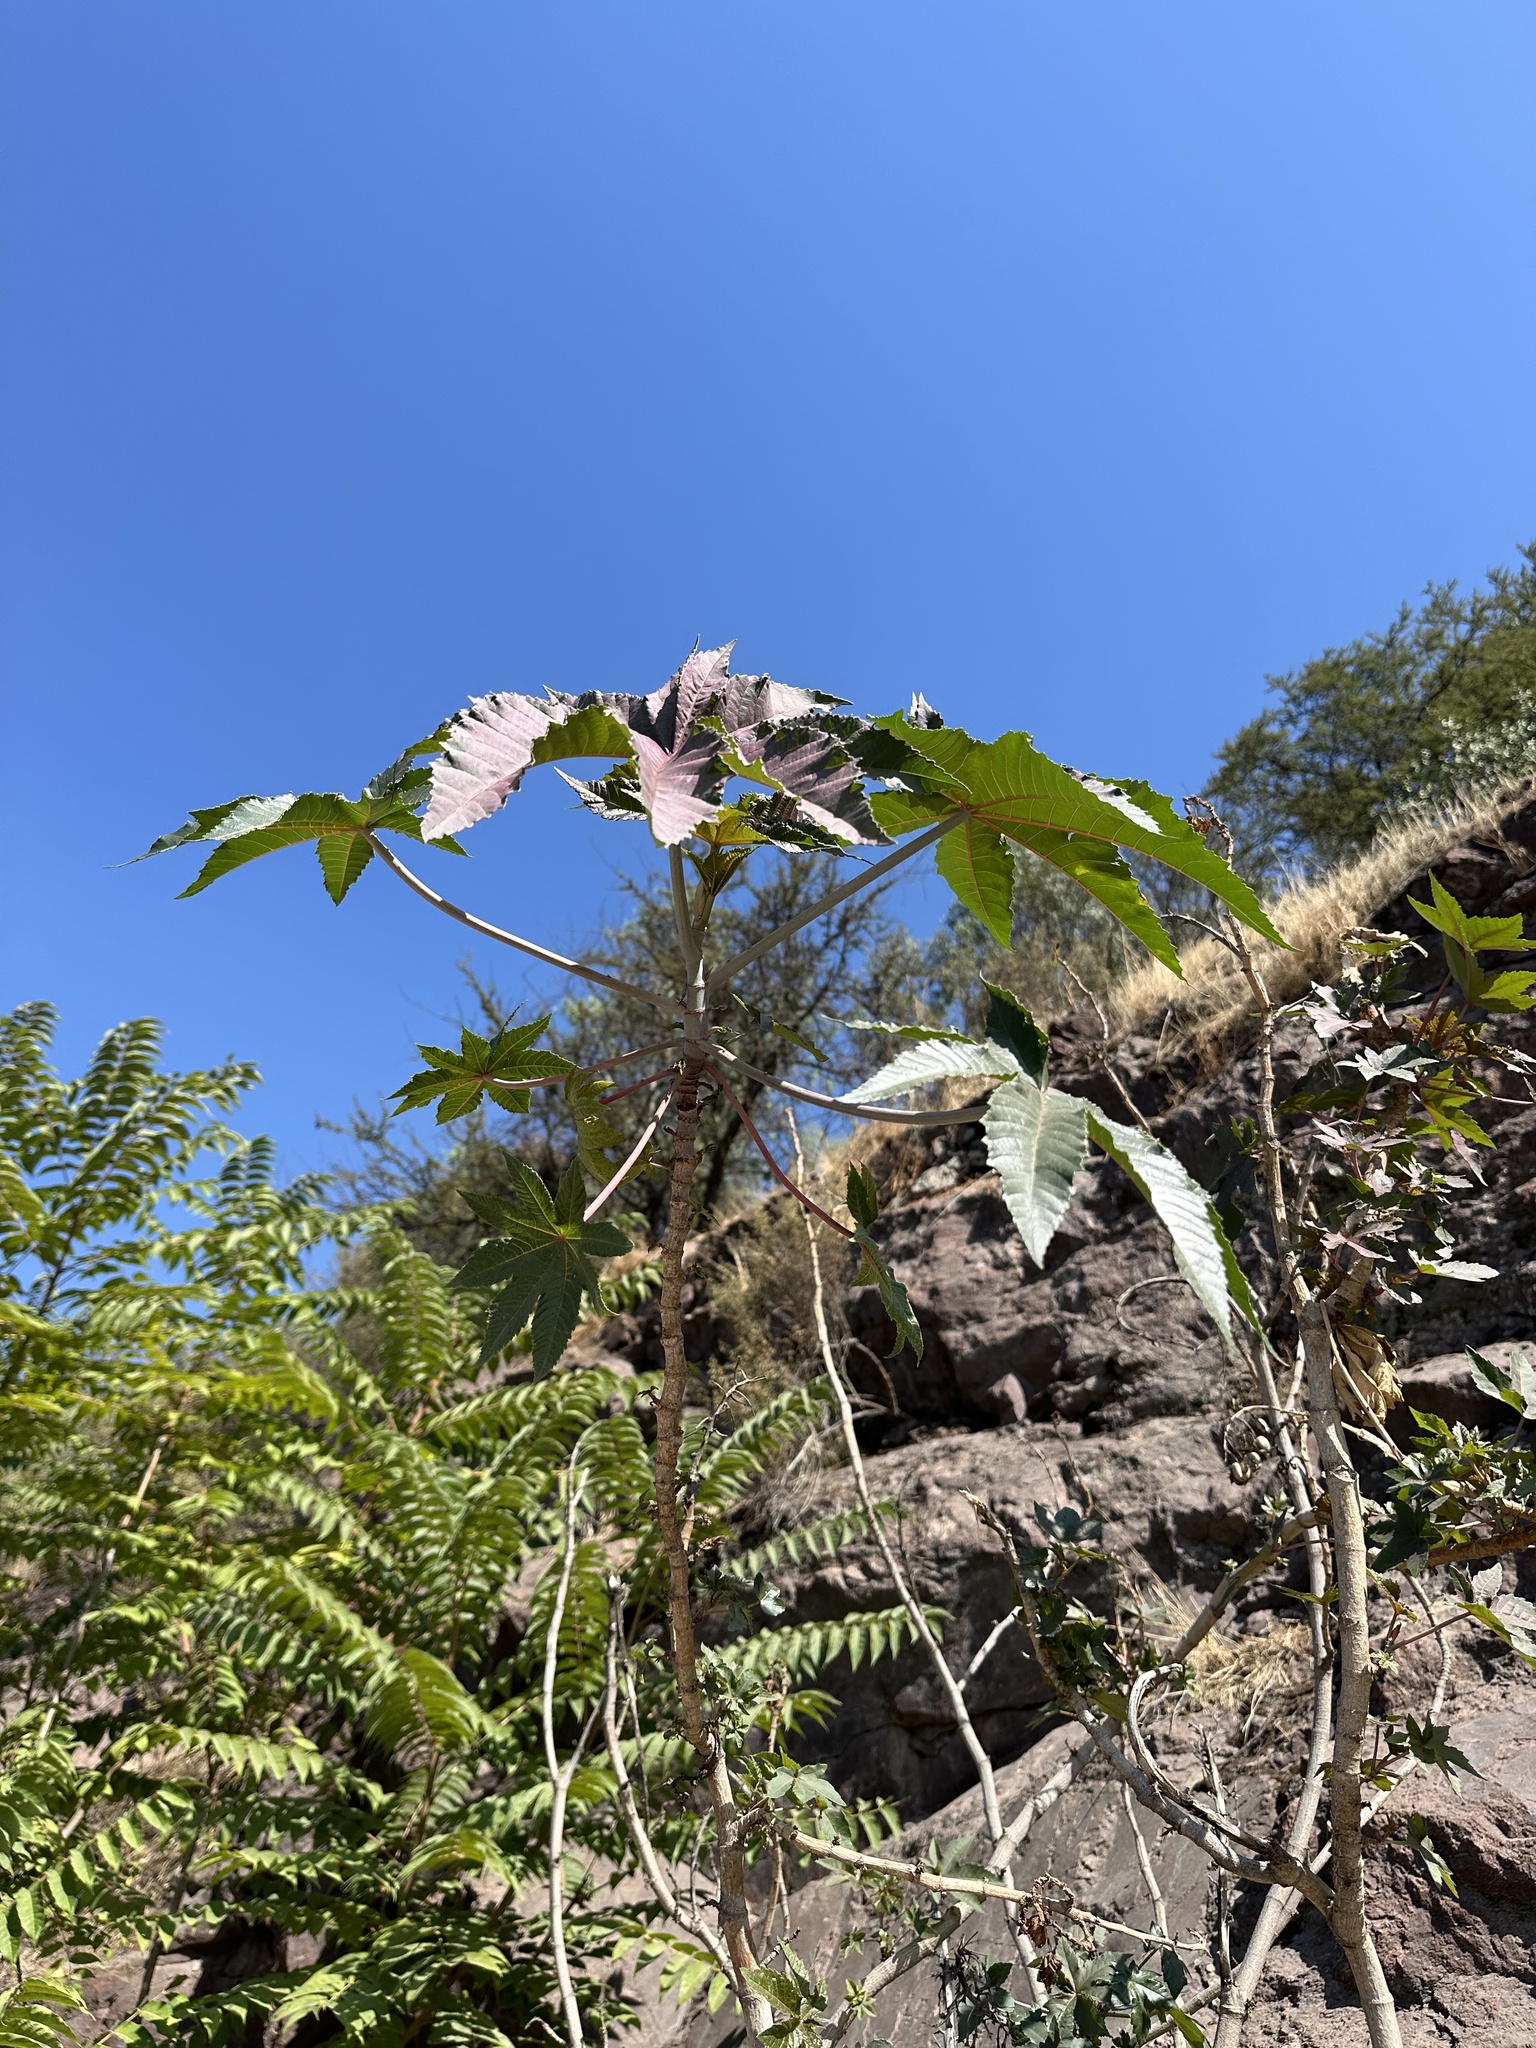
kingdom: Plantae
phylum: Tracheophyta
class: Magnoliopsida
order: Malpighiales
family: Euphorbiaceae
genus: Ricinus
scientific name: Ricinus communis
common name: Castor-oil-plant
